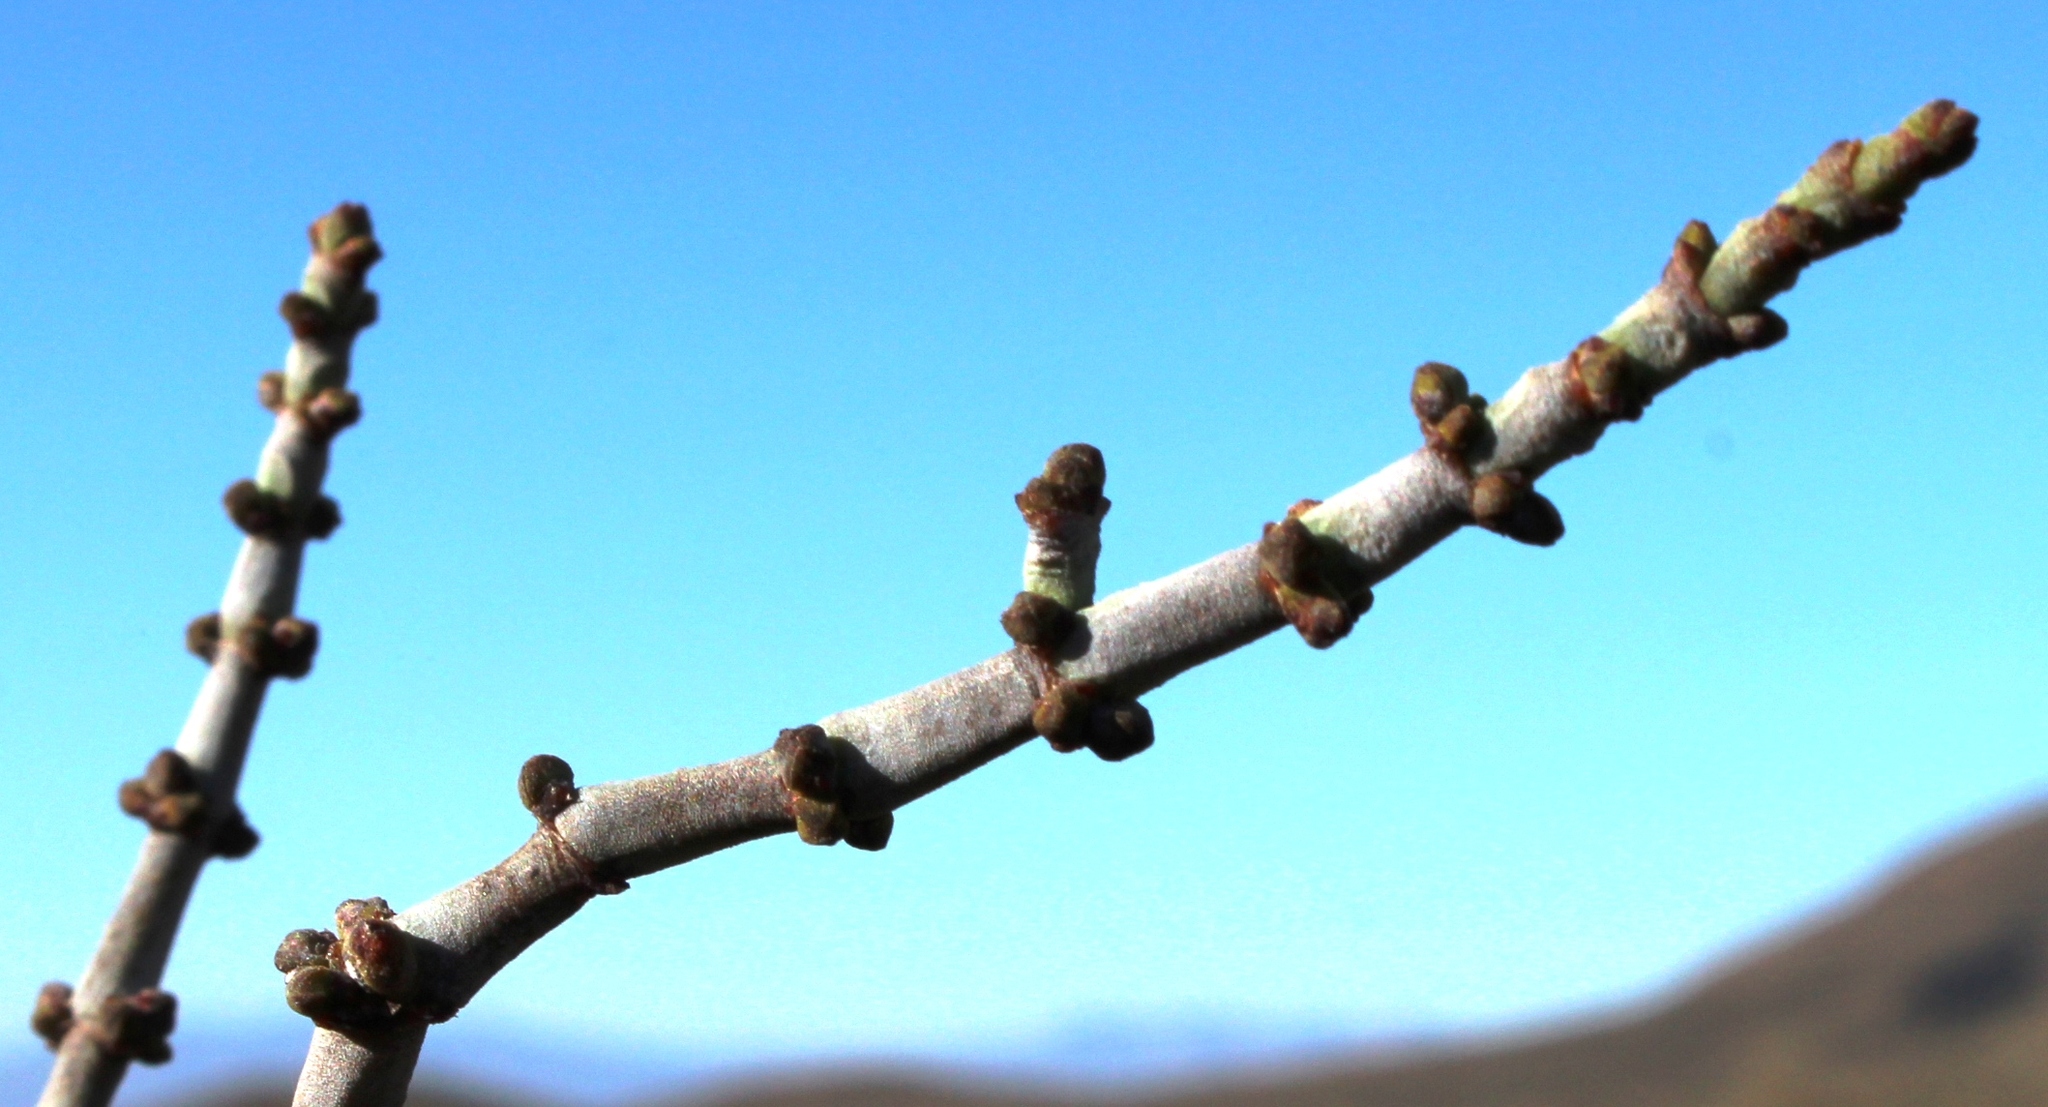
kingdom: Plantae
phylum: Tracheophyta
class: Magnoliopsida
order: Santalales
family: Viscaceae
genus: Viscum
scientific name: Viscum capense
